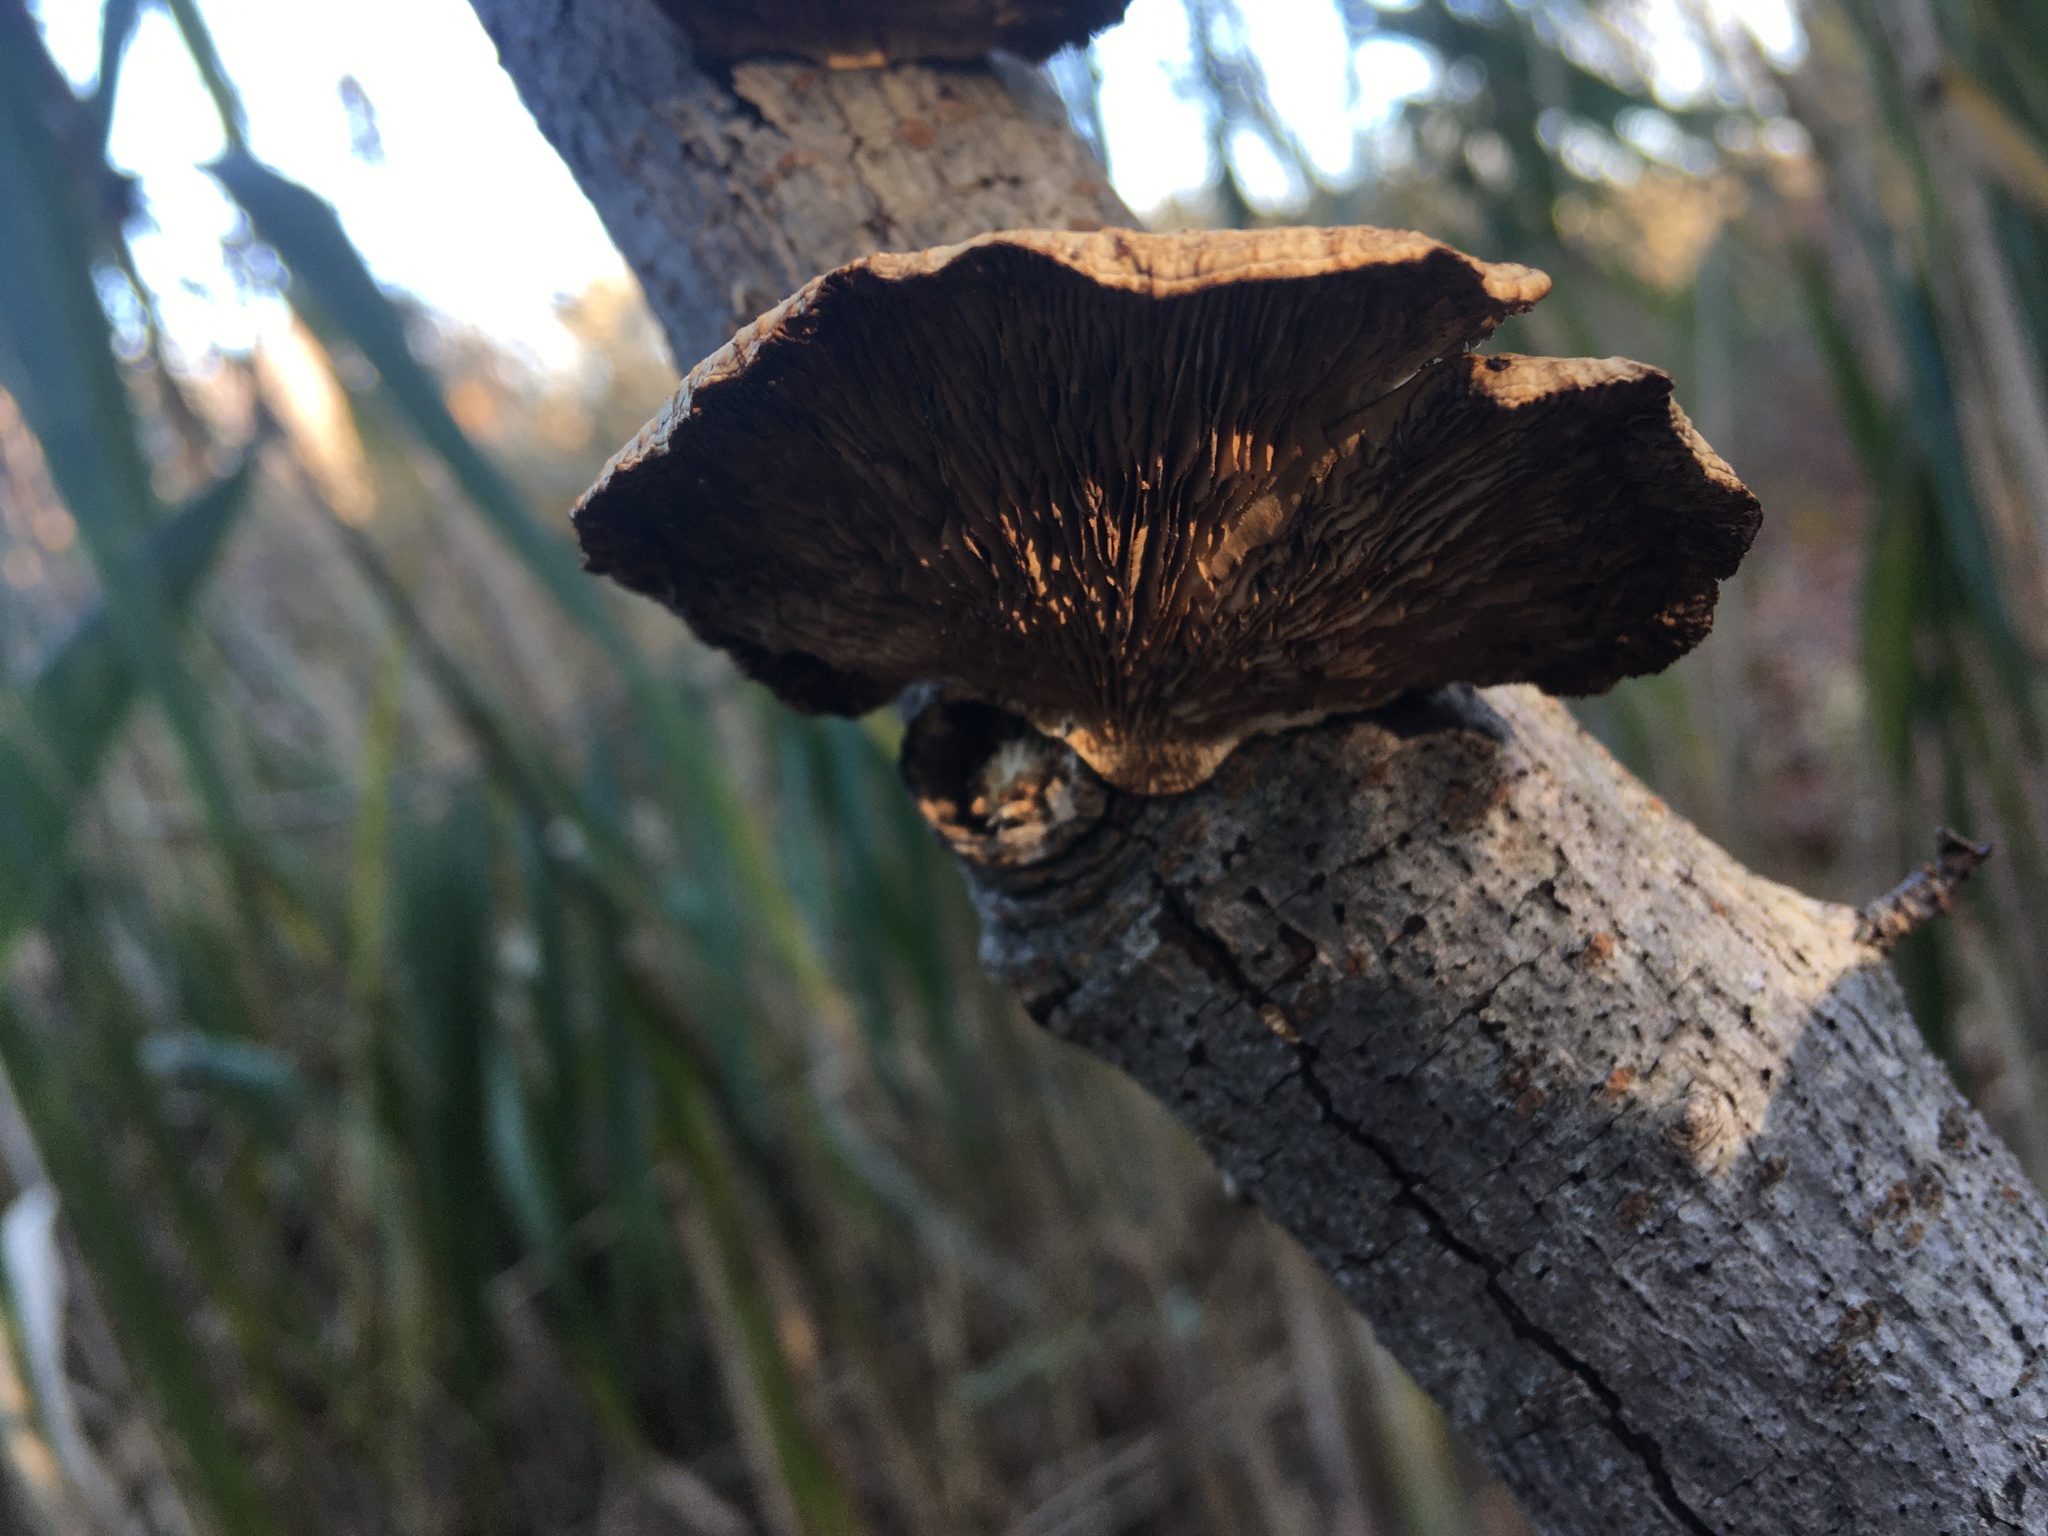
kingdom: Fungi
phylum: Basidiomycota
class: Agaricomycetes
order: Polyporales
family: Polyporaceae
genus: Daedaleopsis
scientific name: Daedaleopsis confragosa
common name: Blushing bracket
